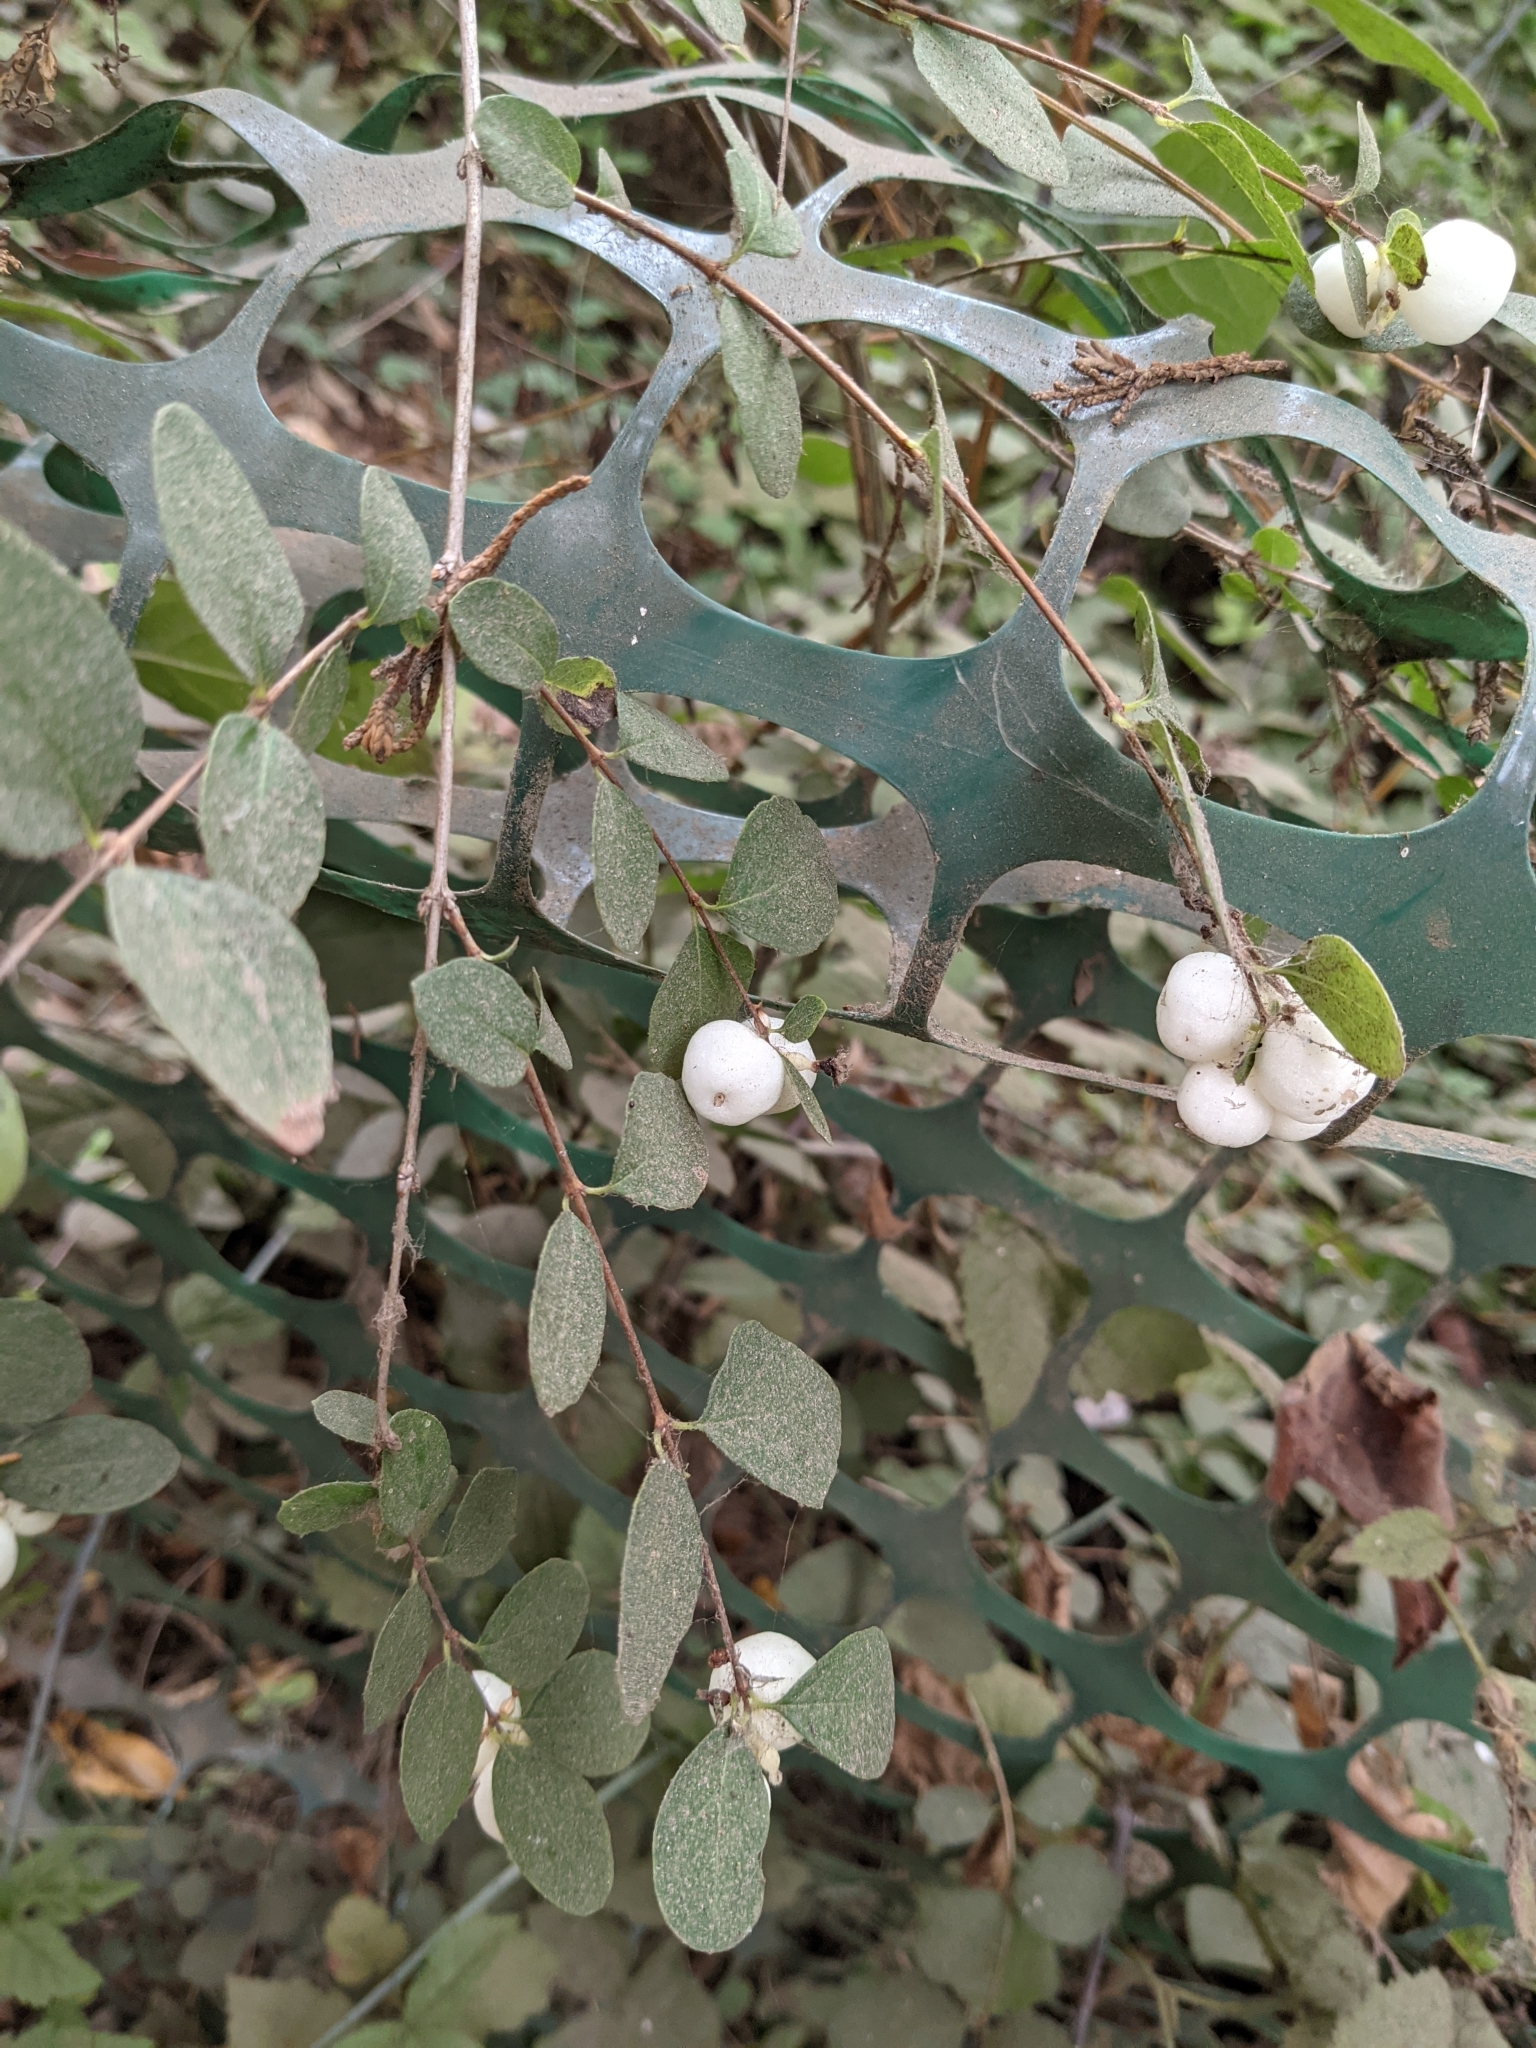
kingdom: Plantae
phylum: Tracheophyta
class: Magnoliopsida
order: Dipsacales
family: Caprifoliaceae
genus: Symphoricarpos
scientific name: Symphoricarpos albus
